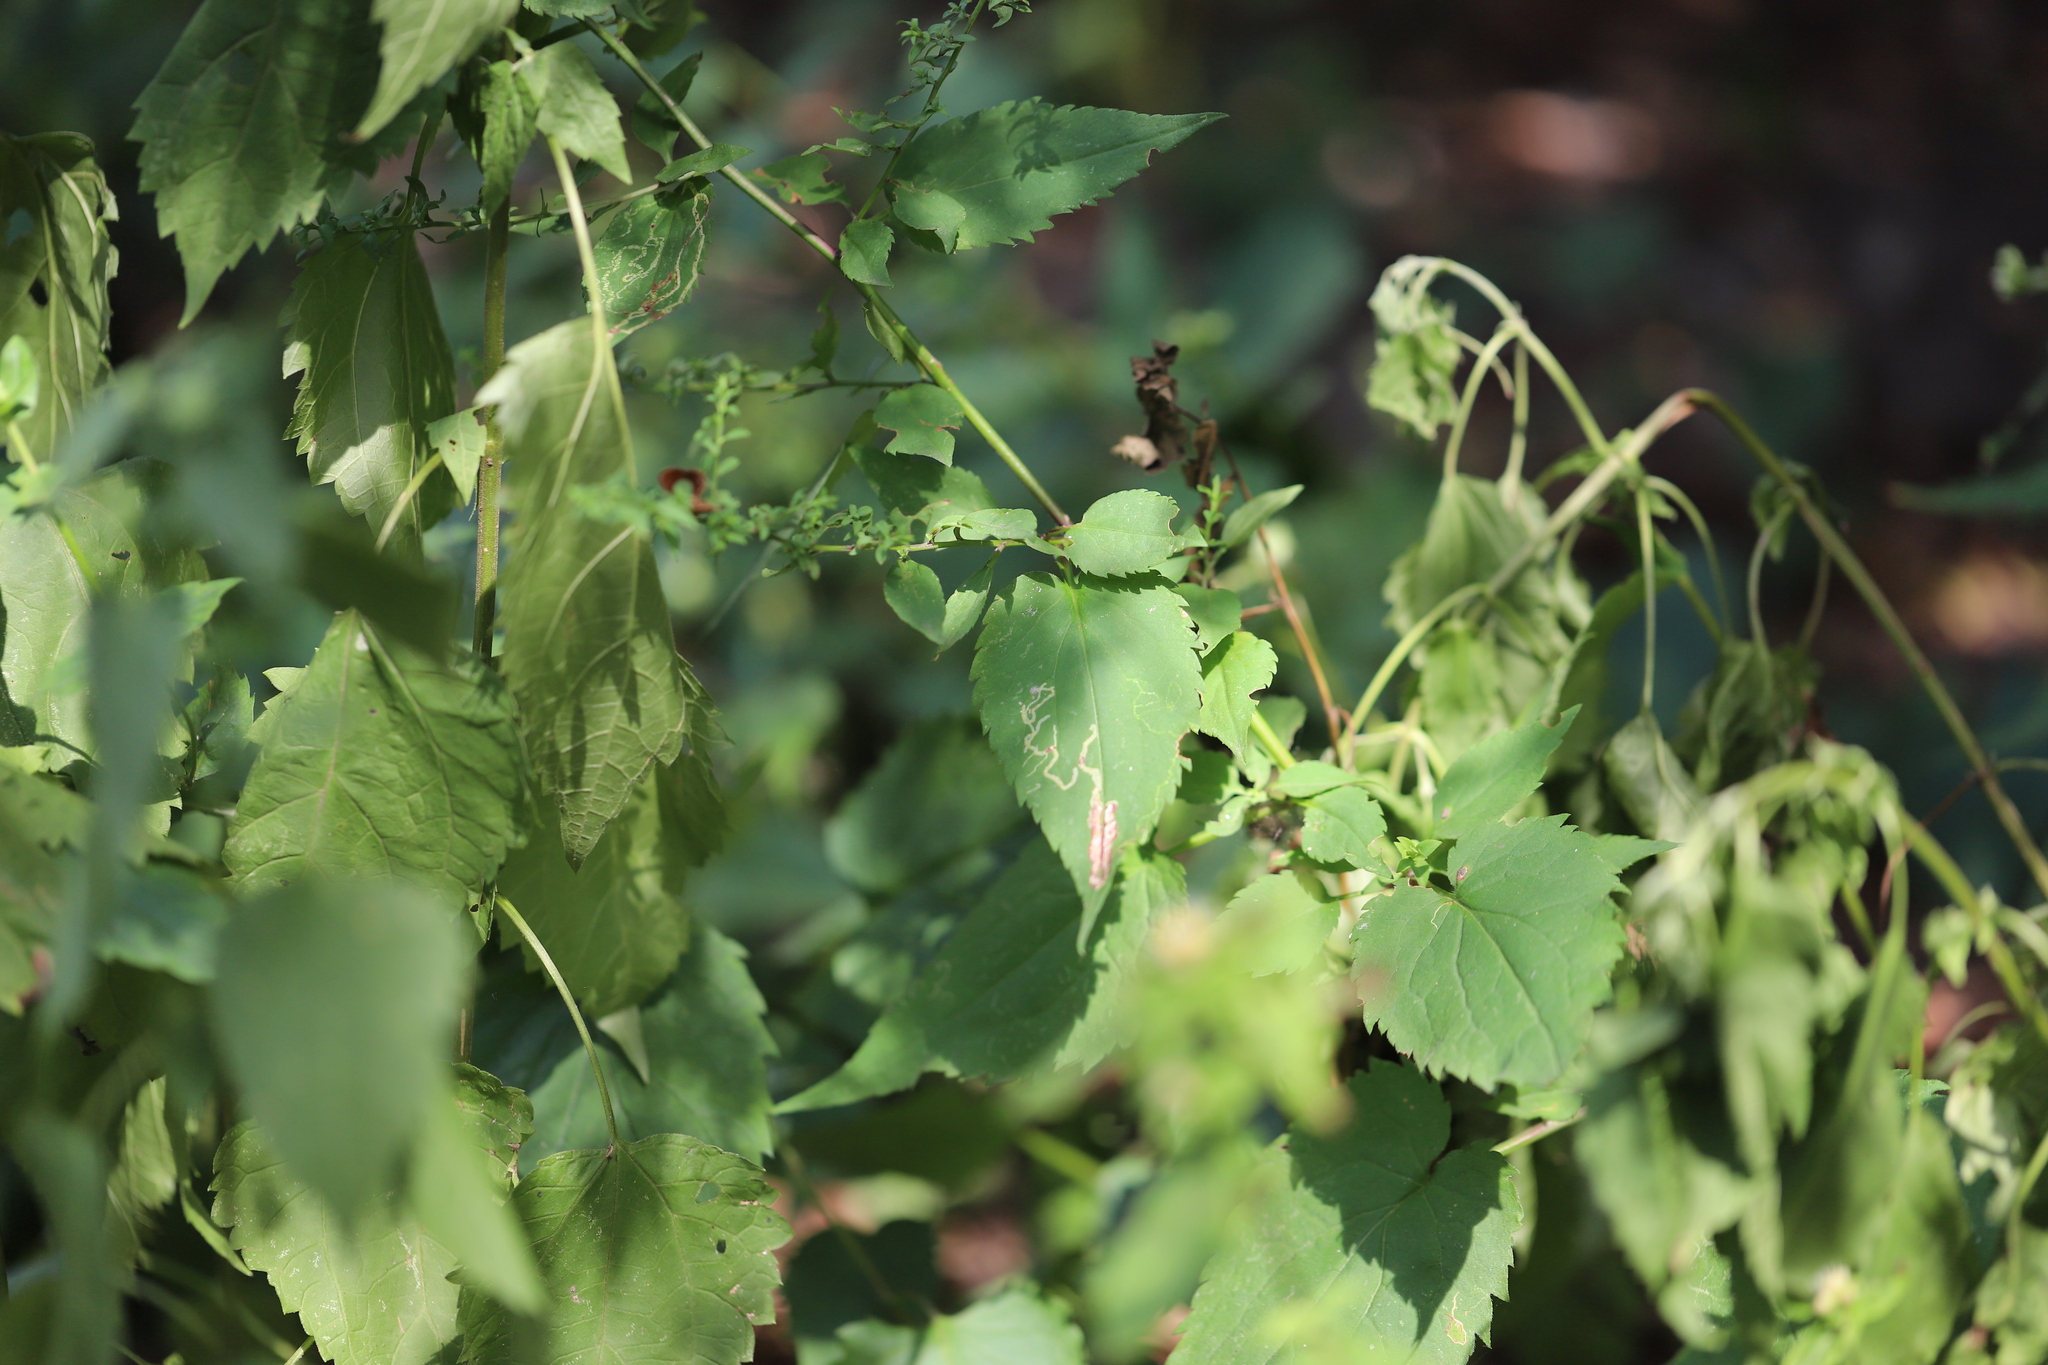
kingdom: Animalia
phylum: Arthropoda
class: Insecta
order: Diptera
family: Agromyzidae
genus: Ophiomyia
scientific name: Ophiomyia carolinensis
